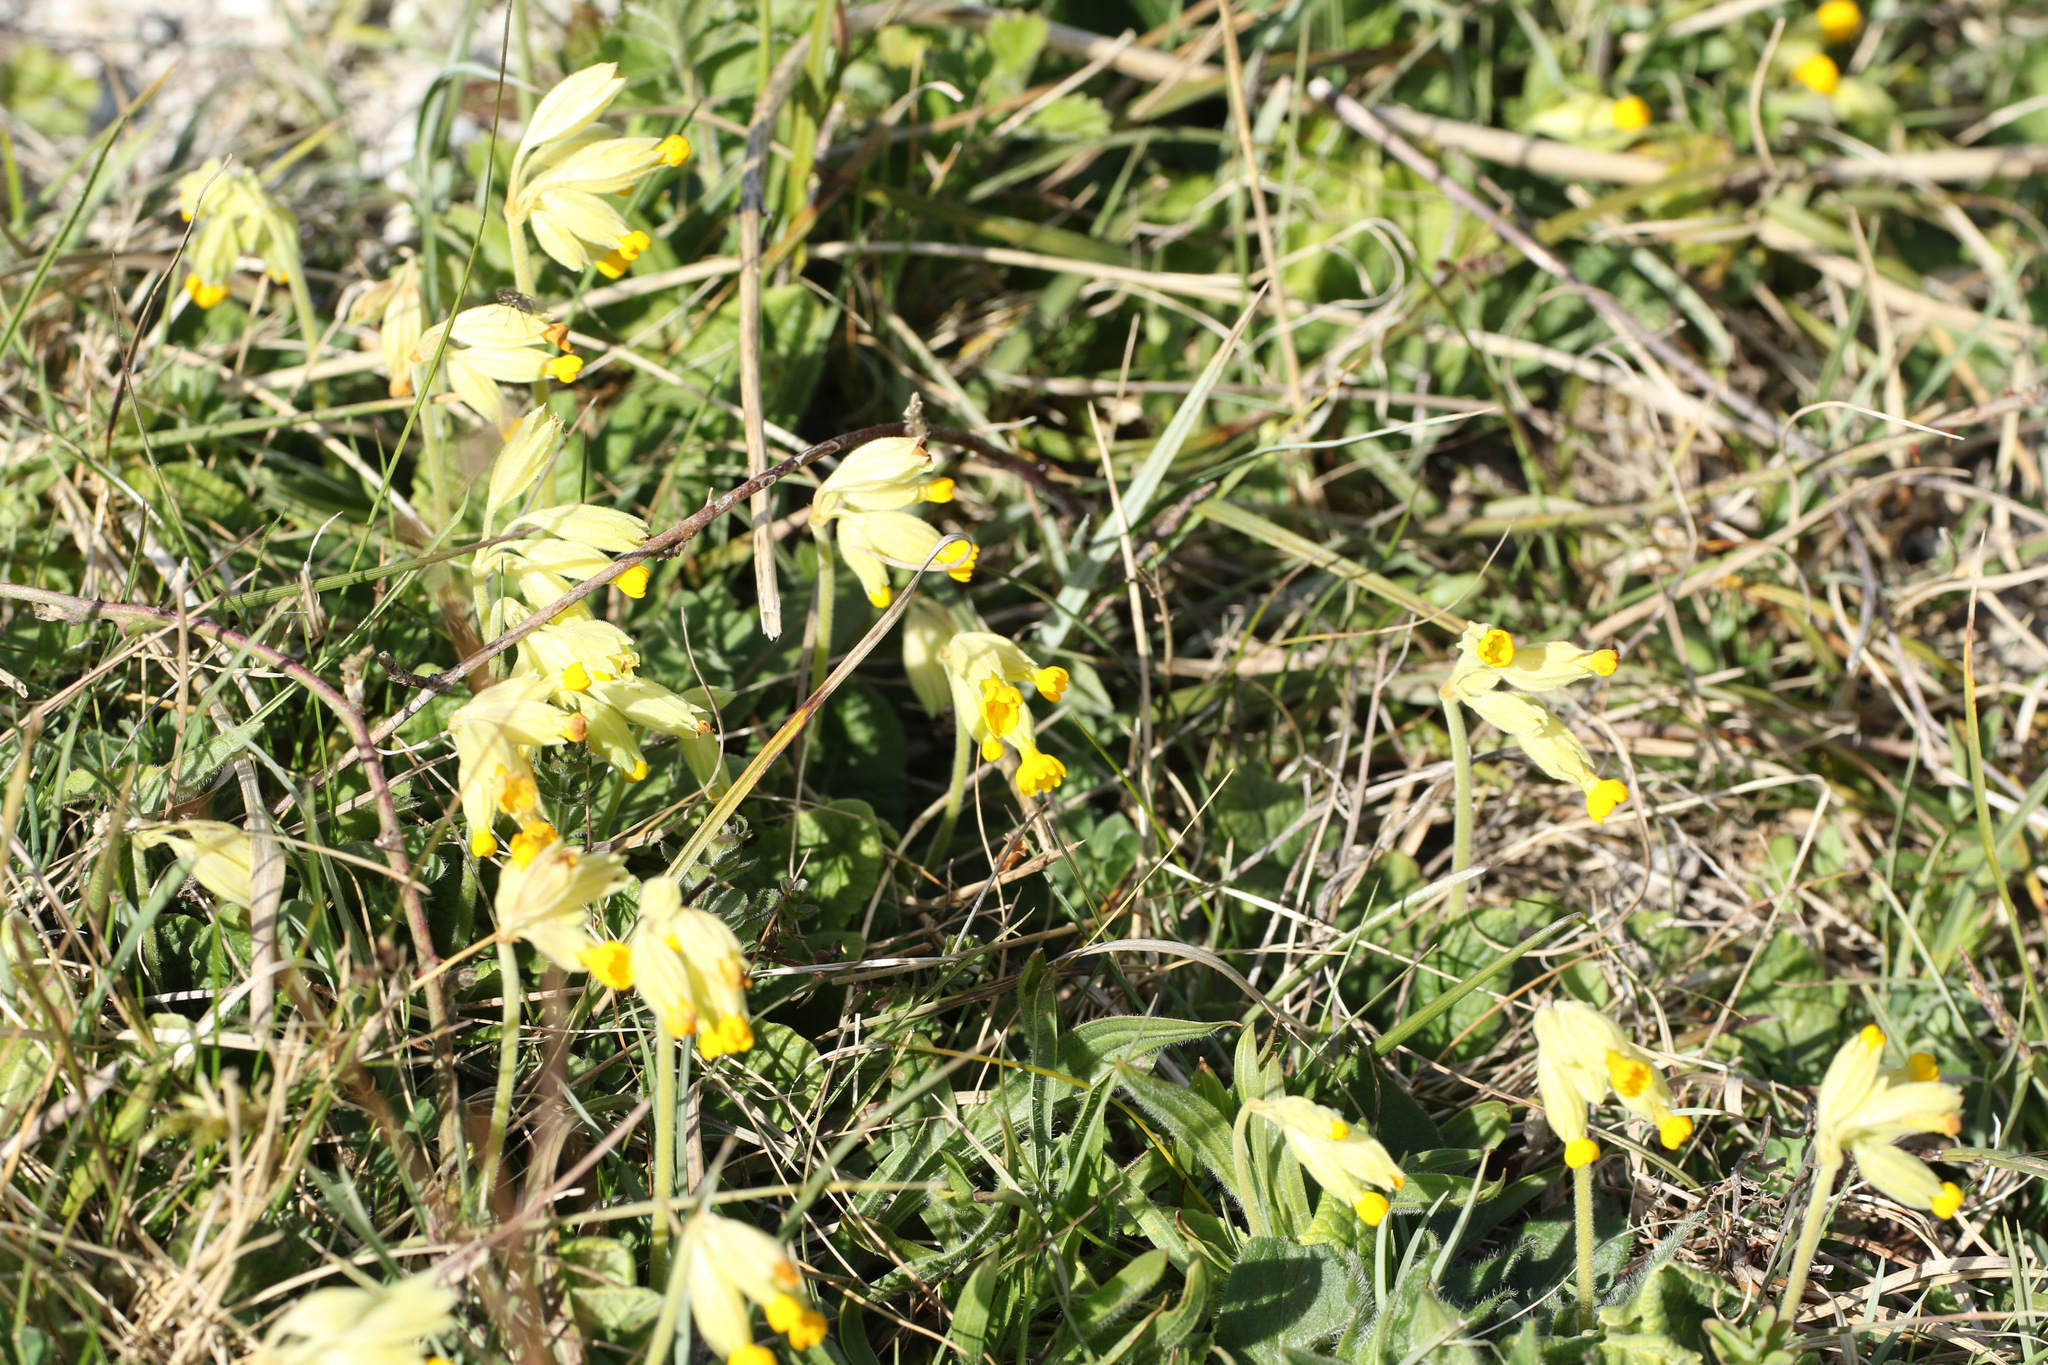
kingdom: Plantae
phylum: Tracheophyta
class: Magnoliopsida
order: Ericales
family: Primulaceae
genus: Primula
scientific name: Primula veris
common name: Cowslip
